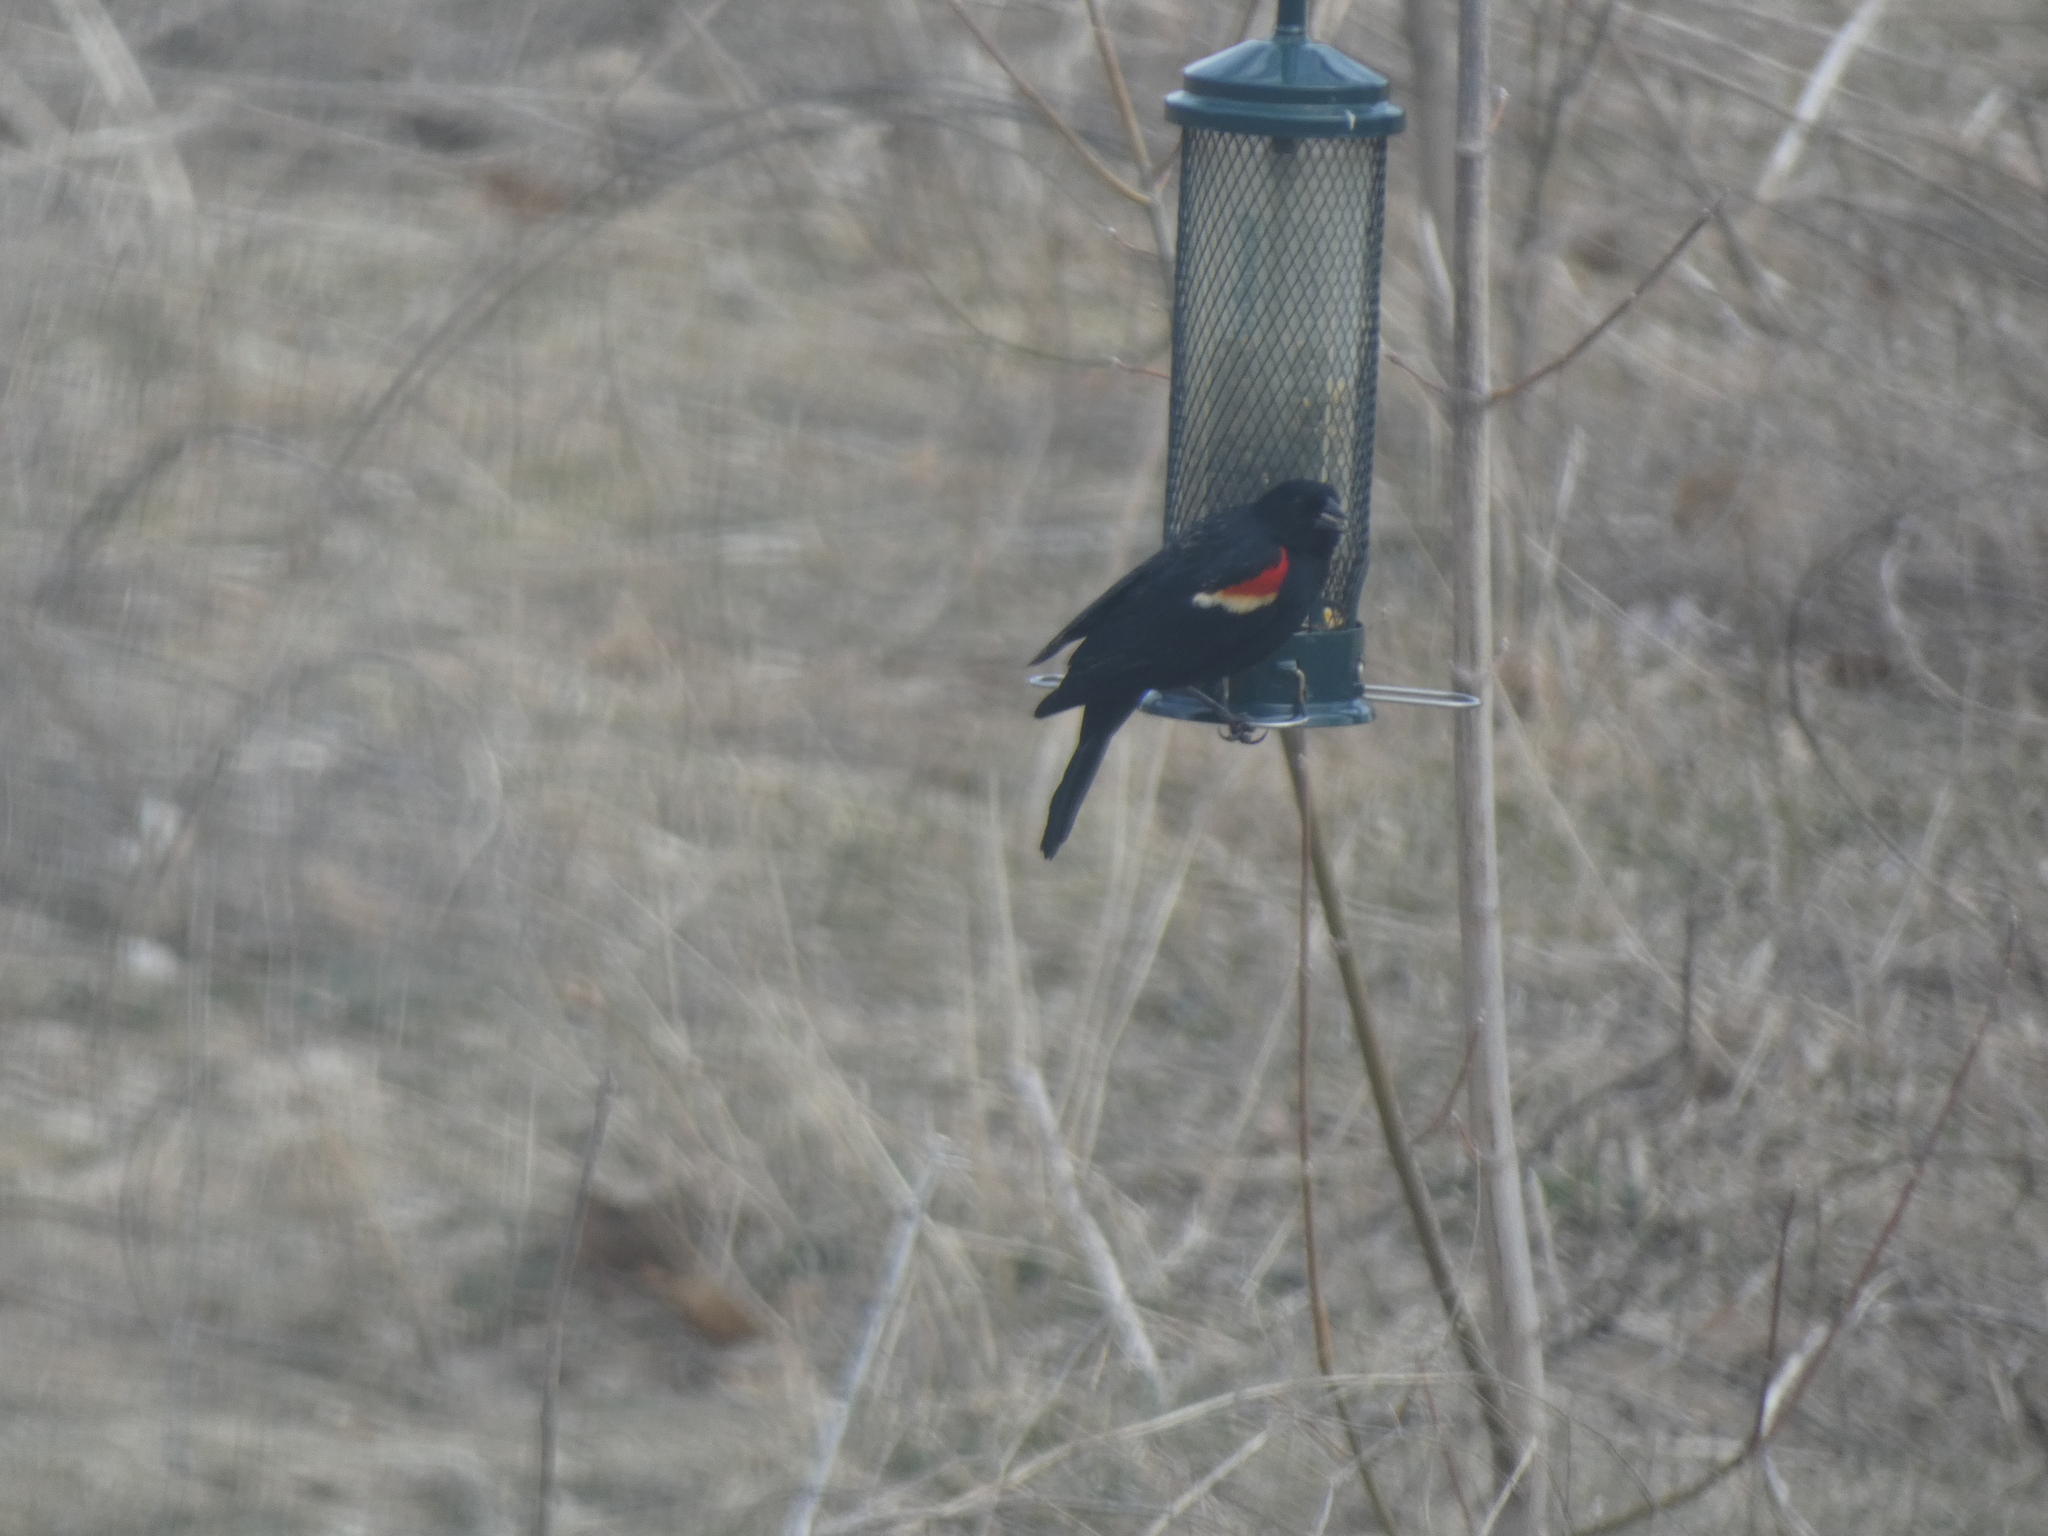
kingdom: Animalia
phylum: Chordata
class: Aves
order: Passeriformes
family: Icteridae
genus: Agelaius
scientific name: Agelaius phoeniceus
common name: Red-winged blackbird
